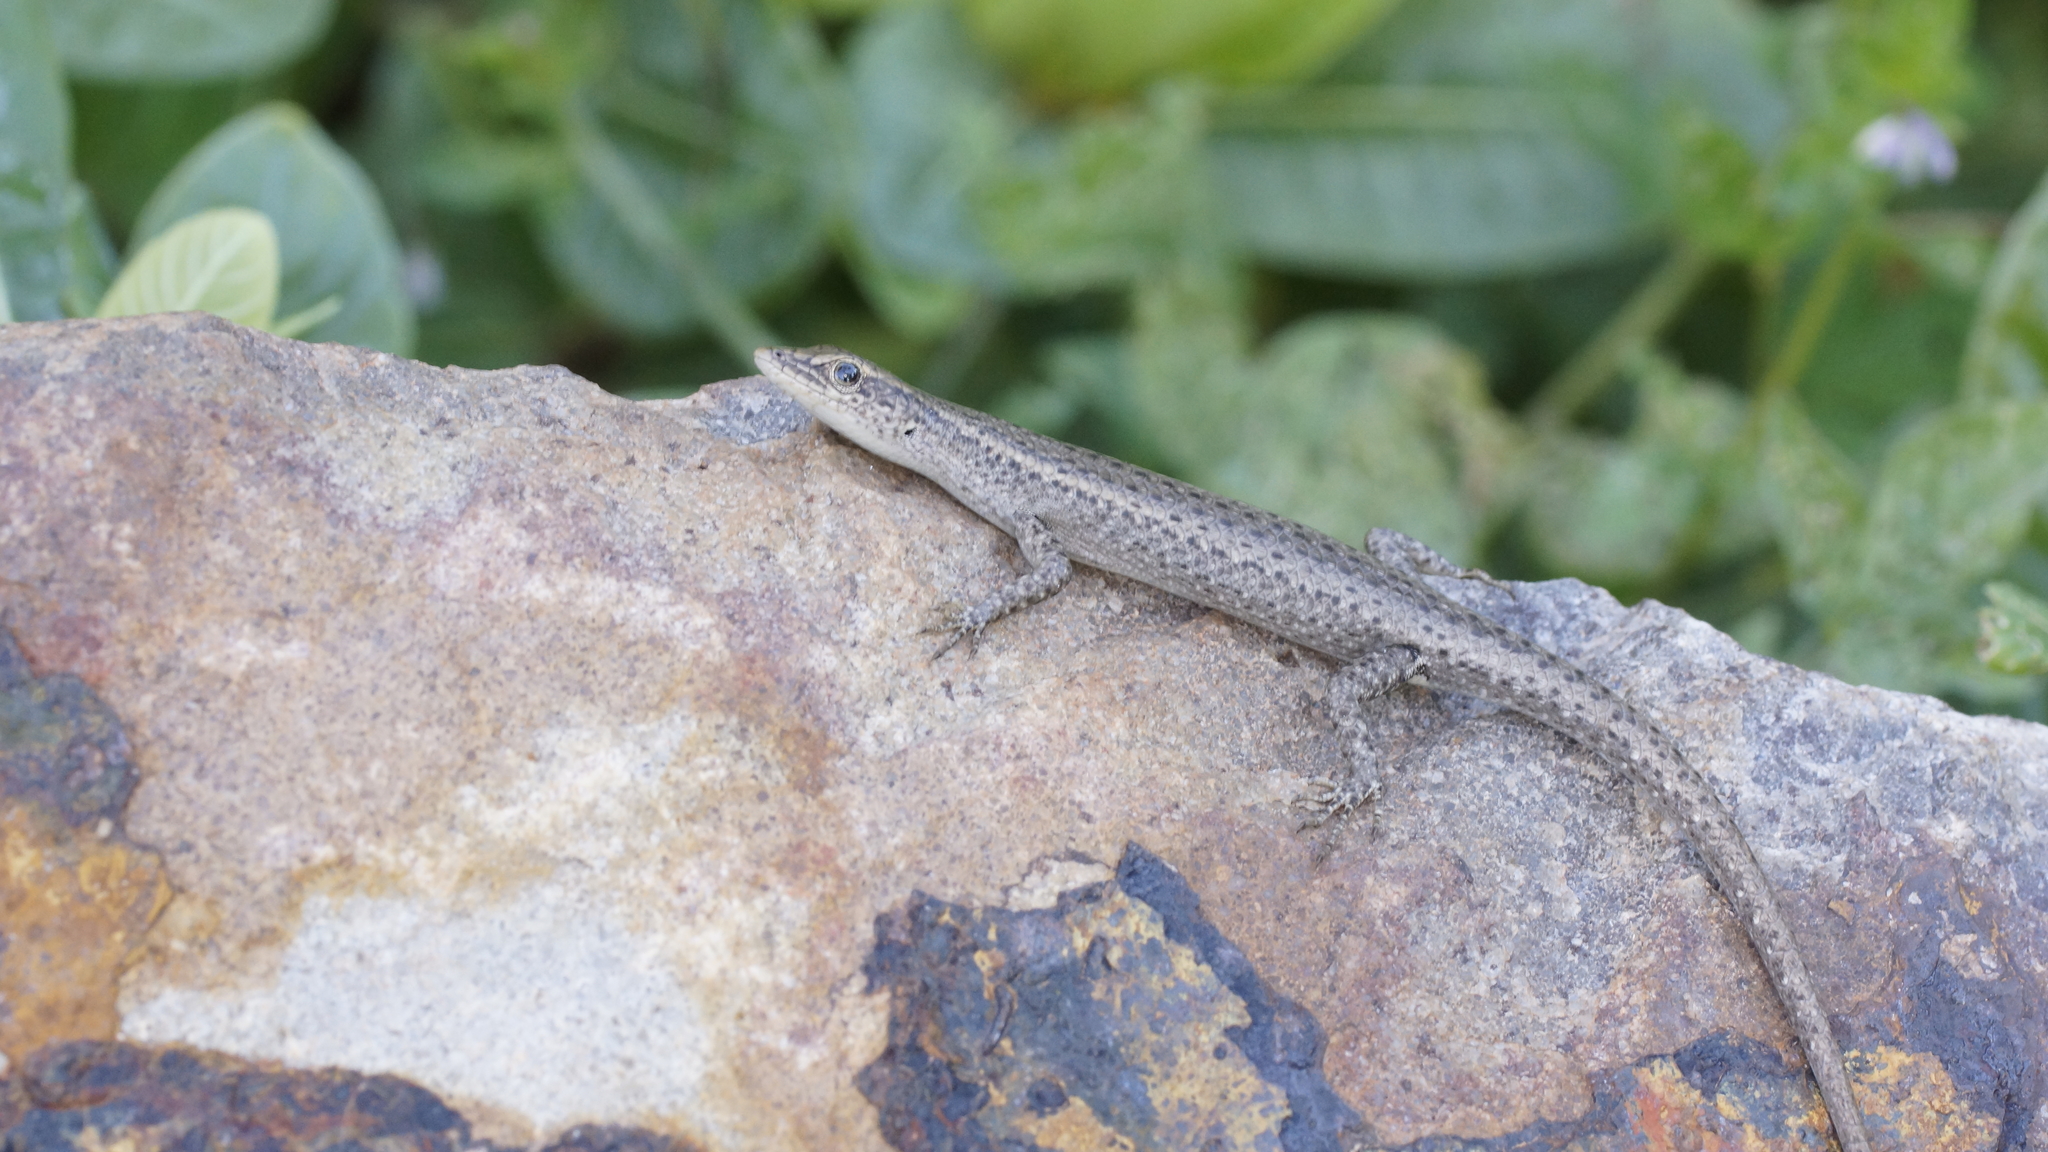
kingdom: Animalia
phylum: Chordata
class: Squamata
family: Scincidae
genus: Cryptoblepharus
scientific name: Cryptoblepharus cygnatus
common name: Swanson’s snake-eyed skink
